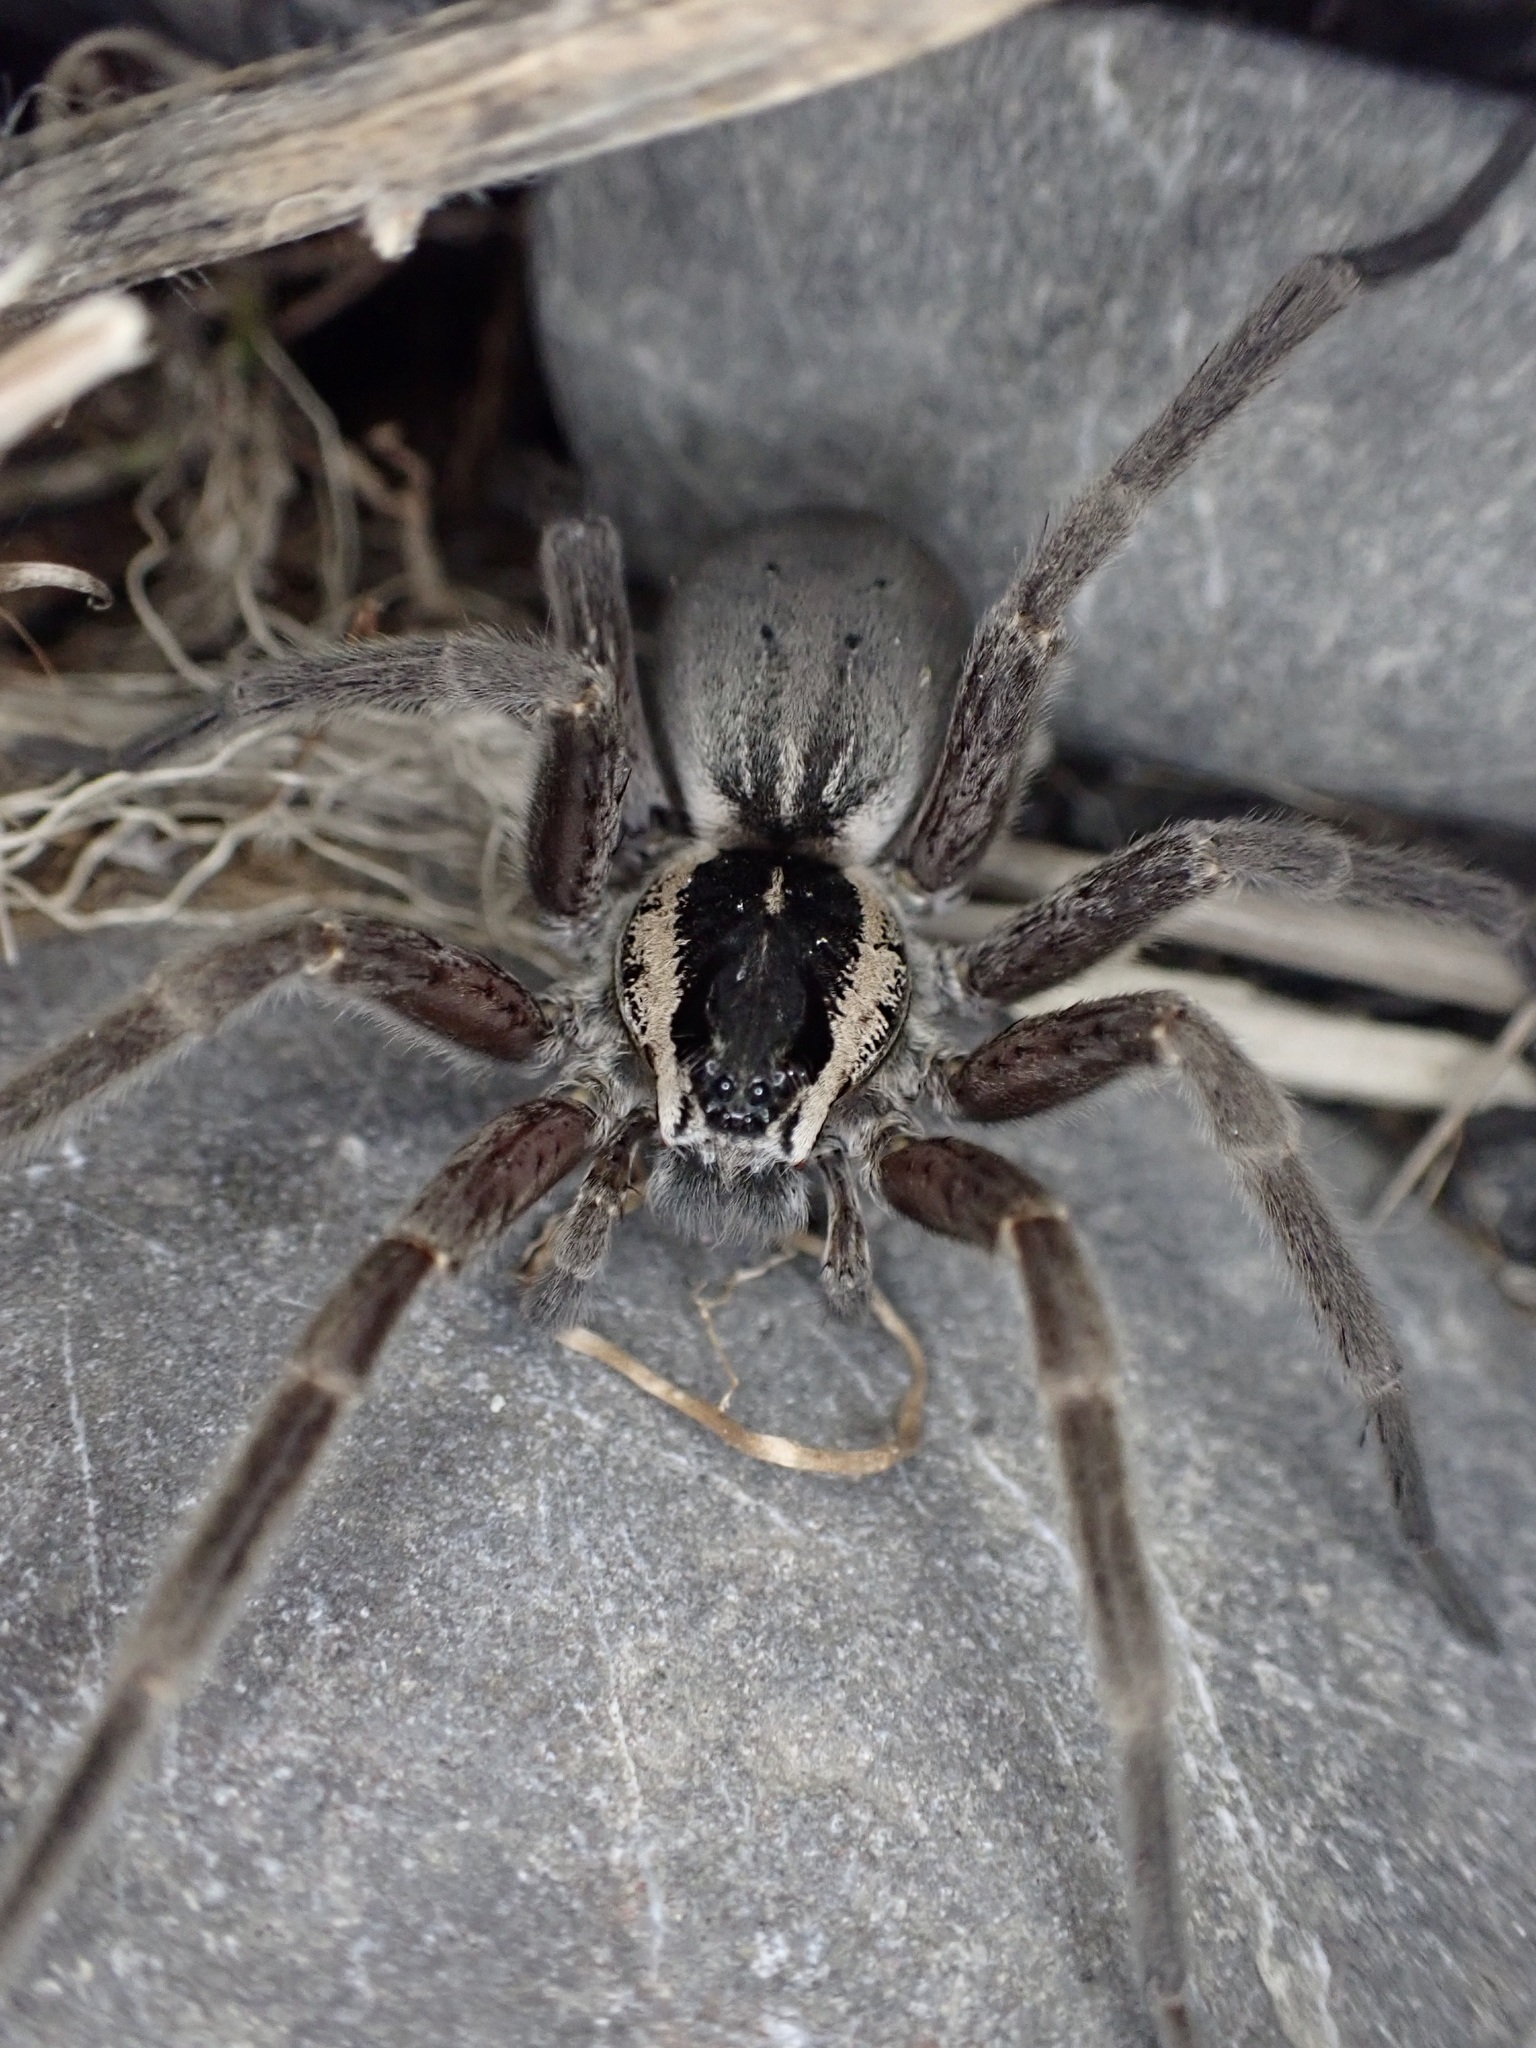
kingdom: Animalia
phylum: Arthropoda
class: Arachnida
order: Araneae
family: Pisauridae
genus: Dolomedes
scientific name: Dolomedes aquaticus
